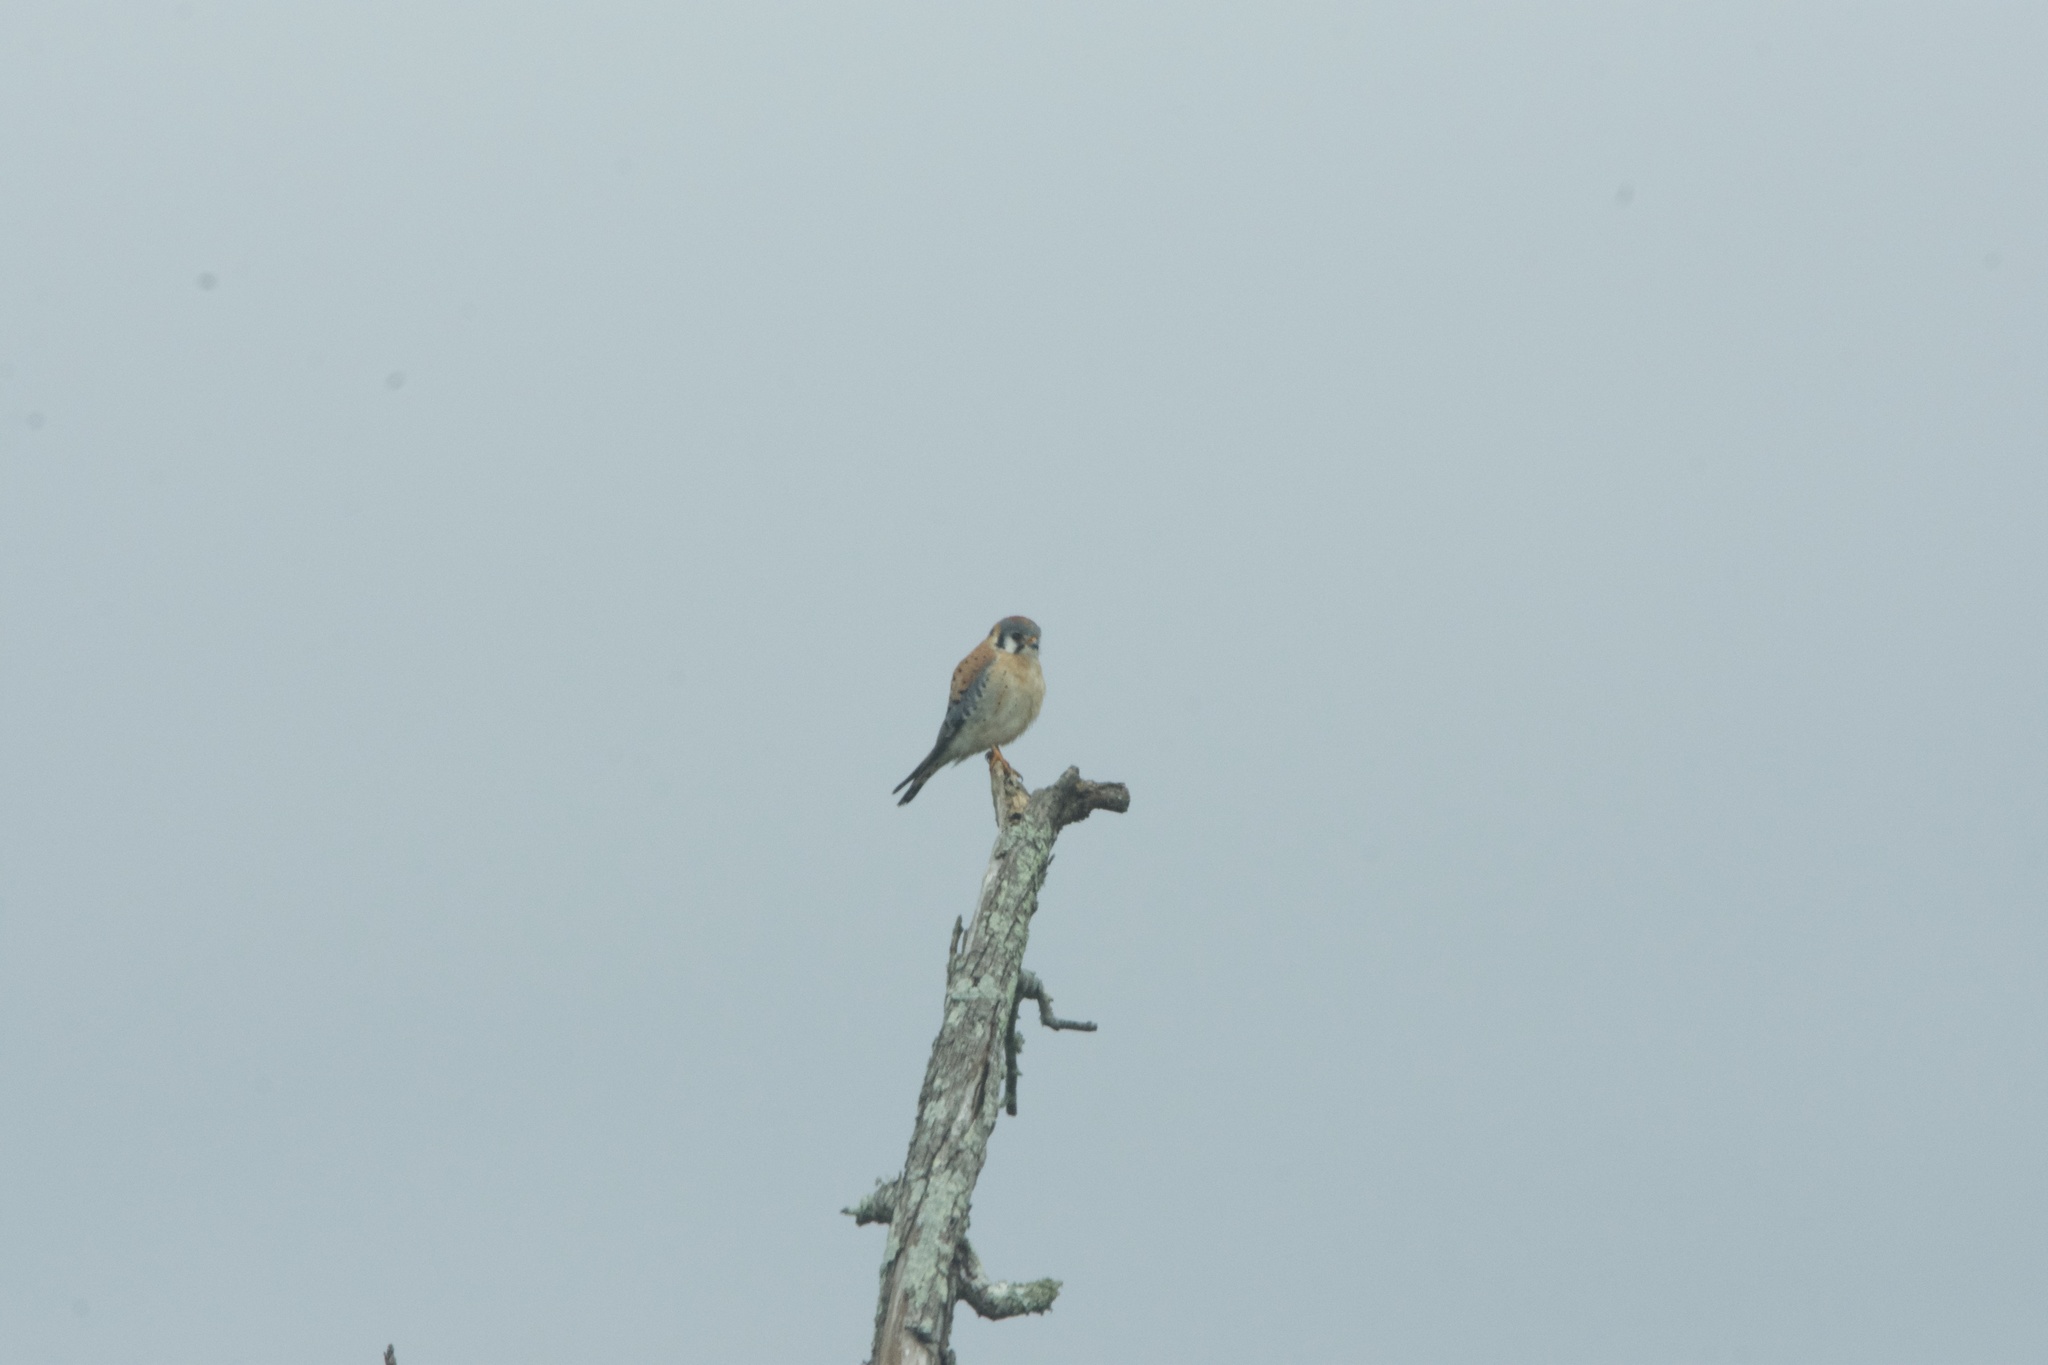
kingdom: Animalia
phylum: Chordata
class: Aves
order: Falconiformes
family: Falconidae
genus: Falco
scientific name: Falco sparverius
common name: American kestrel
